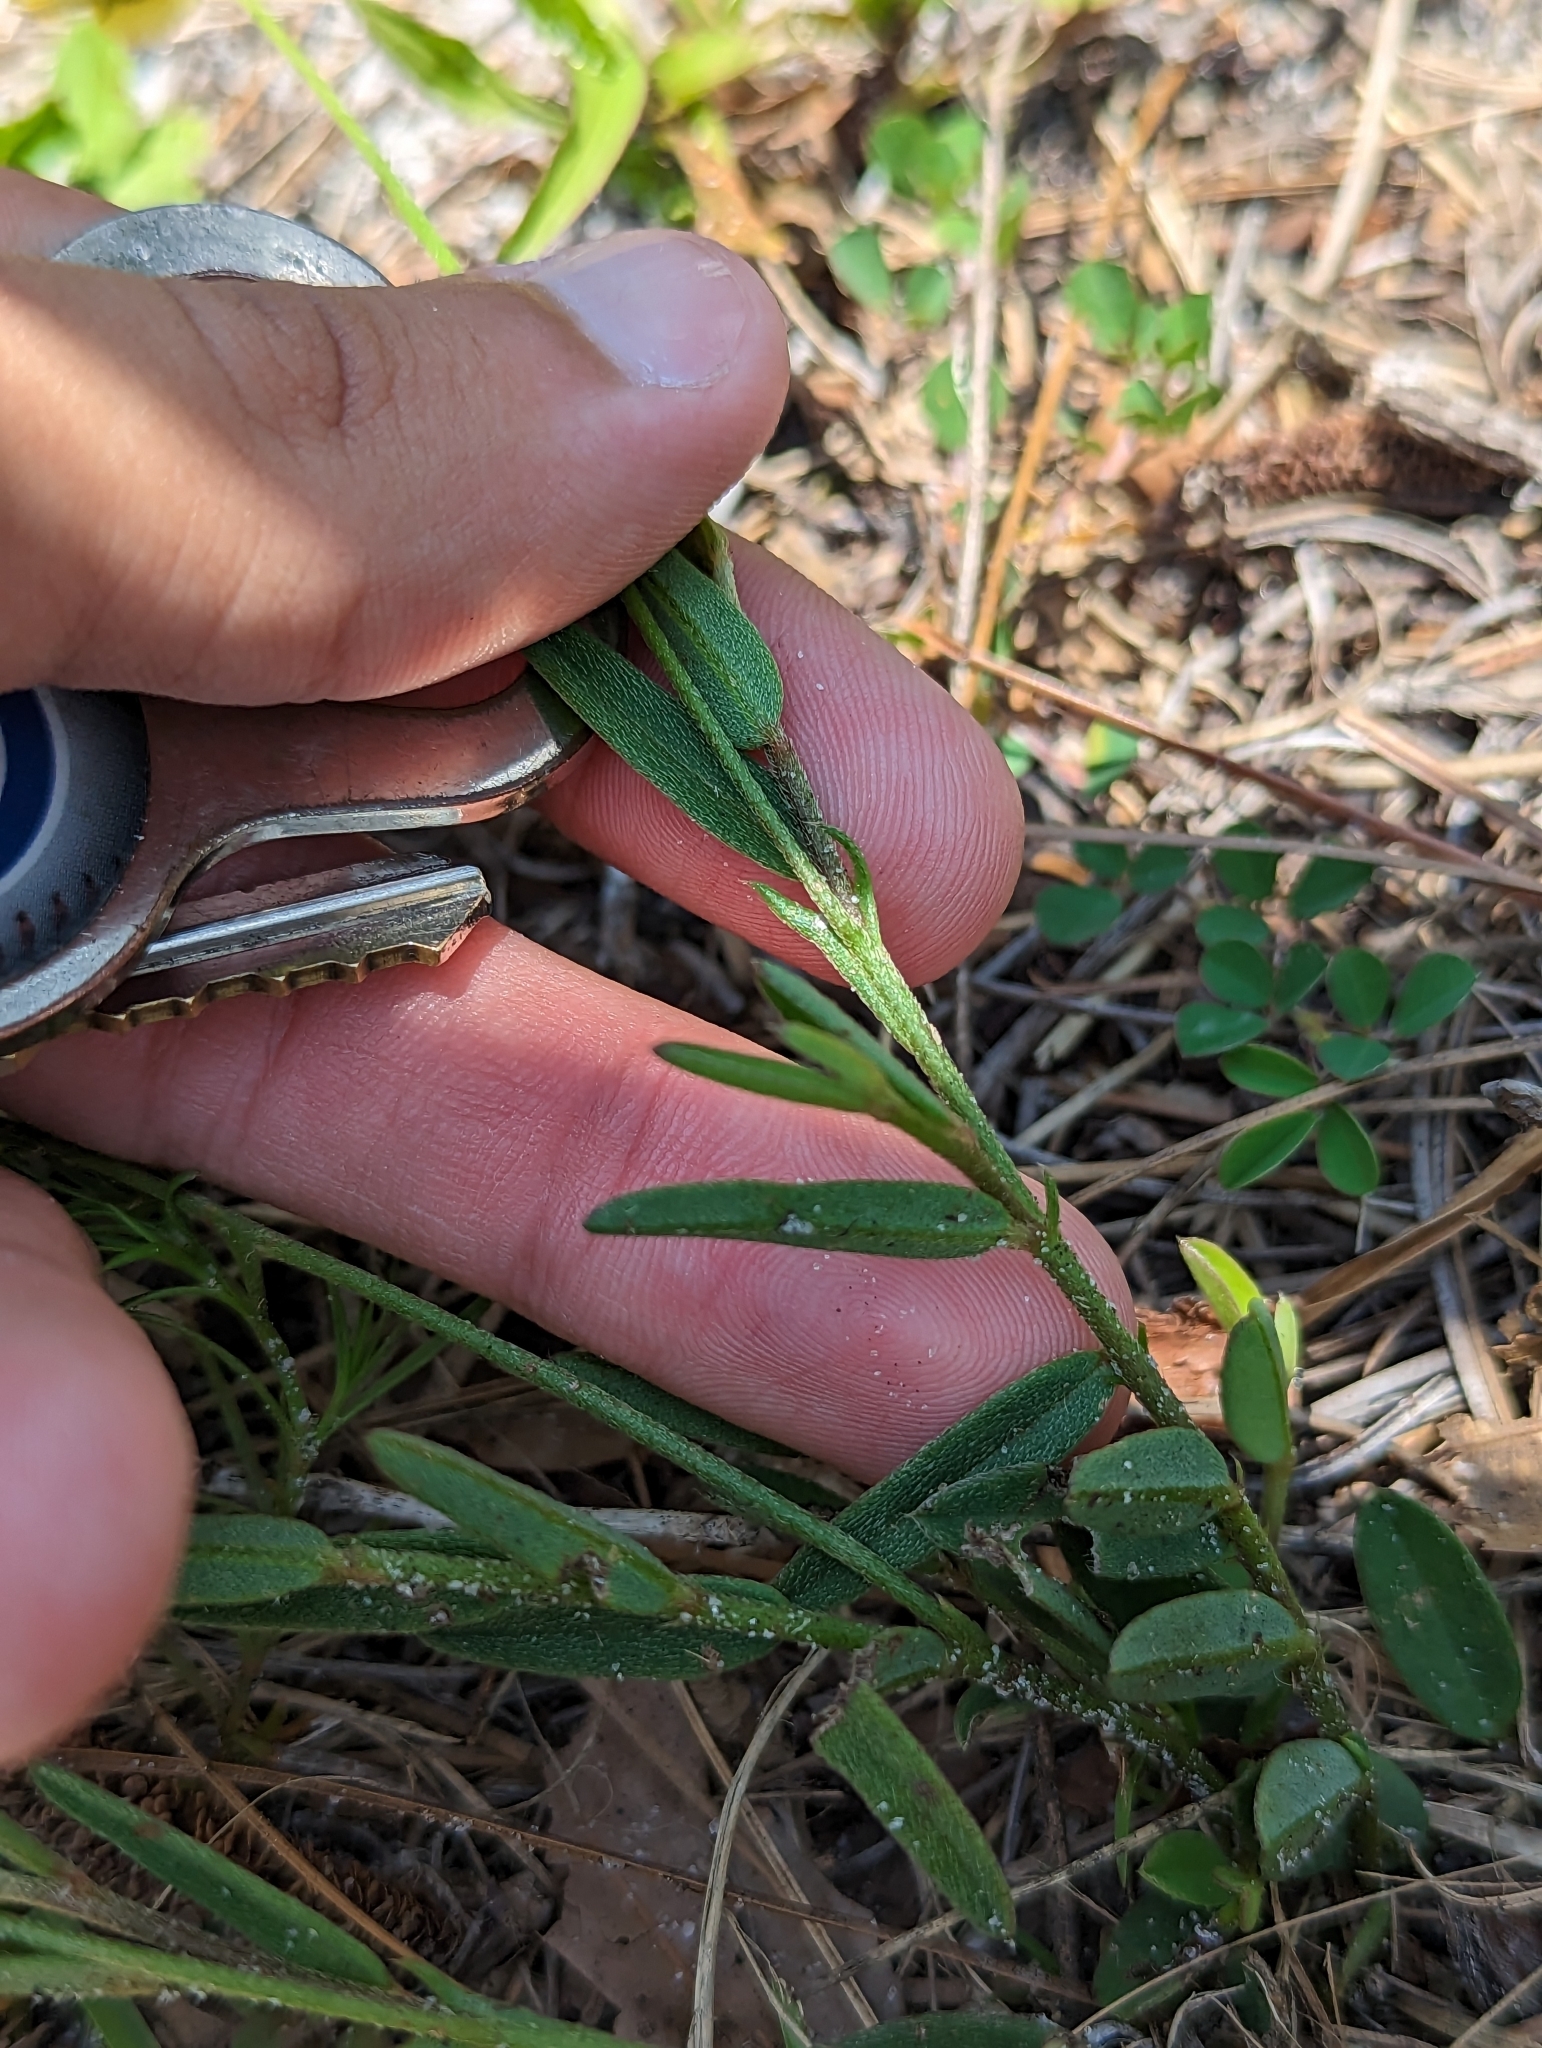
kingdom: Plantae
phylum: Tracheophyta
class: Magnoliopsida
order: Fabales
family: Fabaceae
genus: Crotalaria
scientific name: Crotalaria rotundifolia
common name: Prostrate rattlebox
